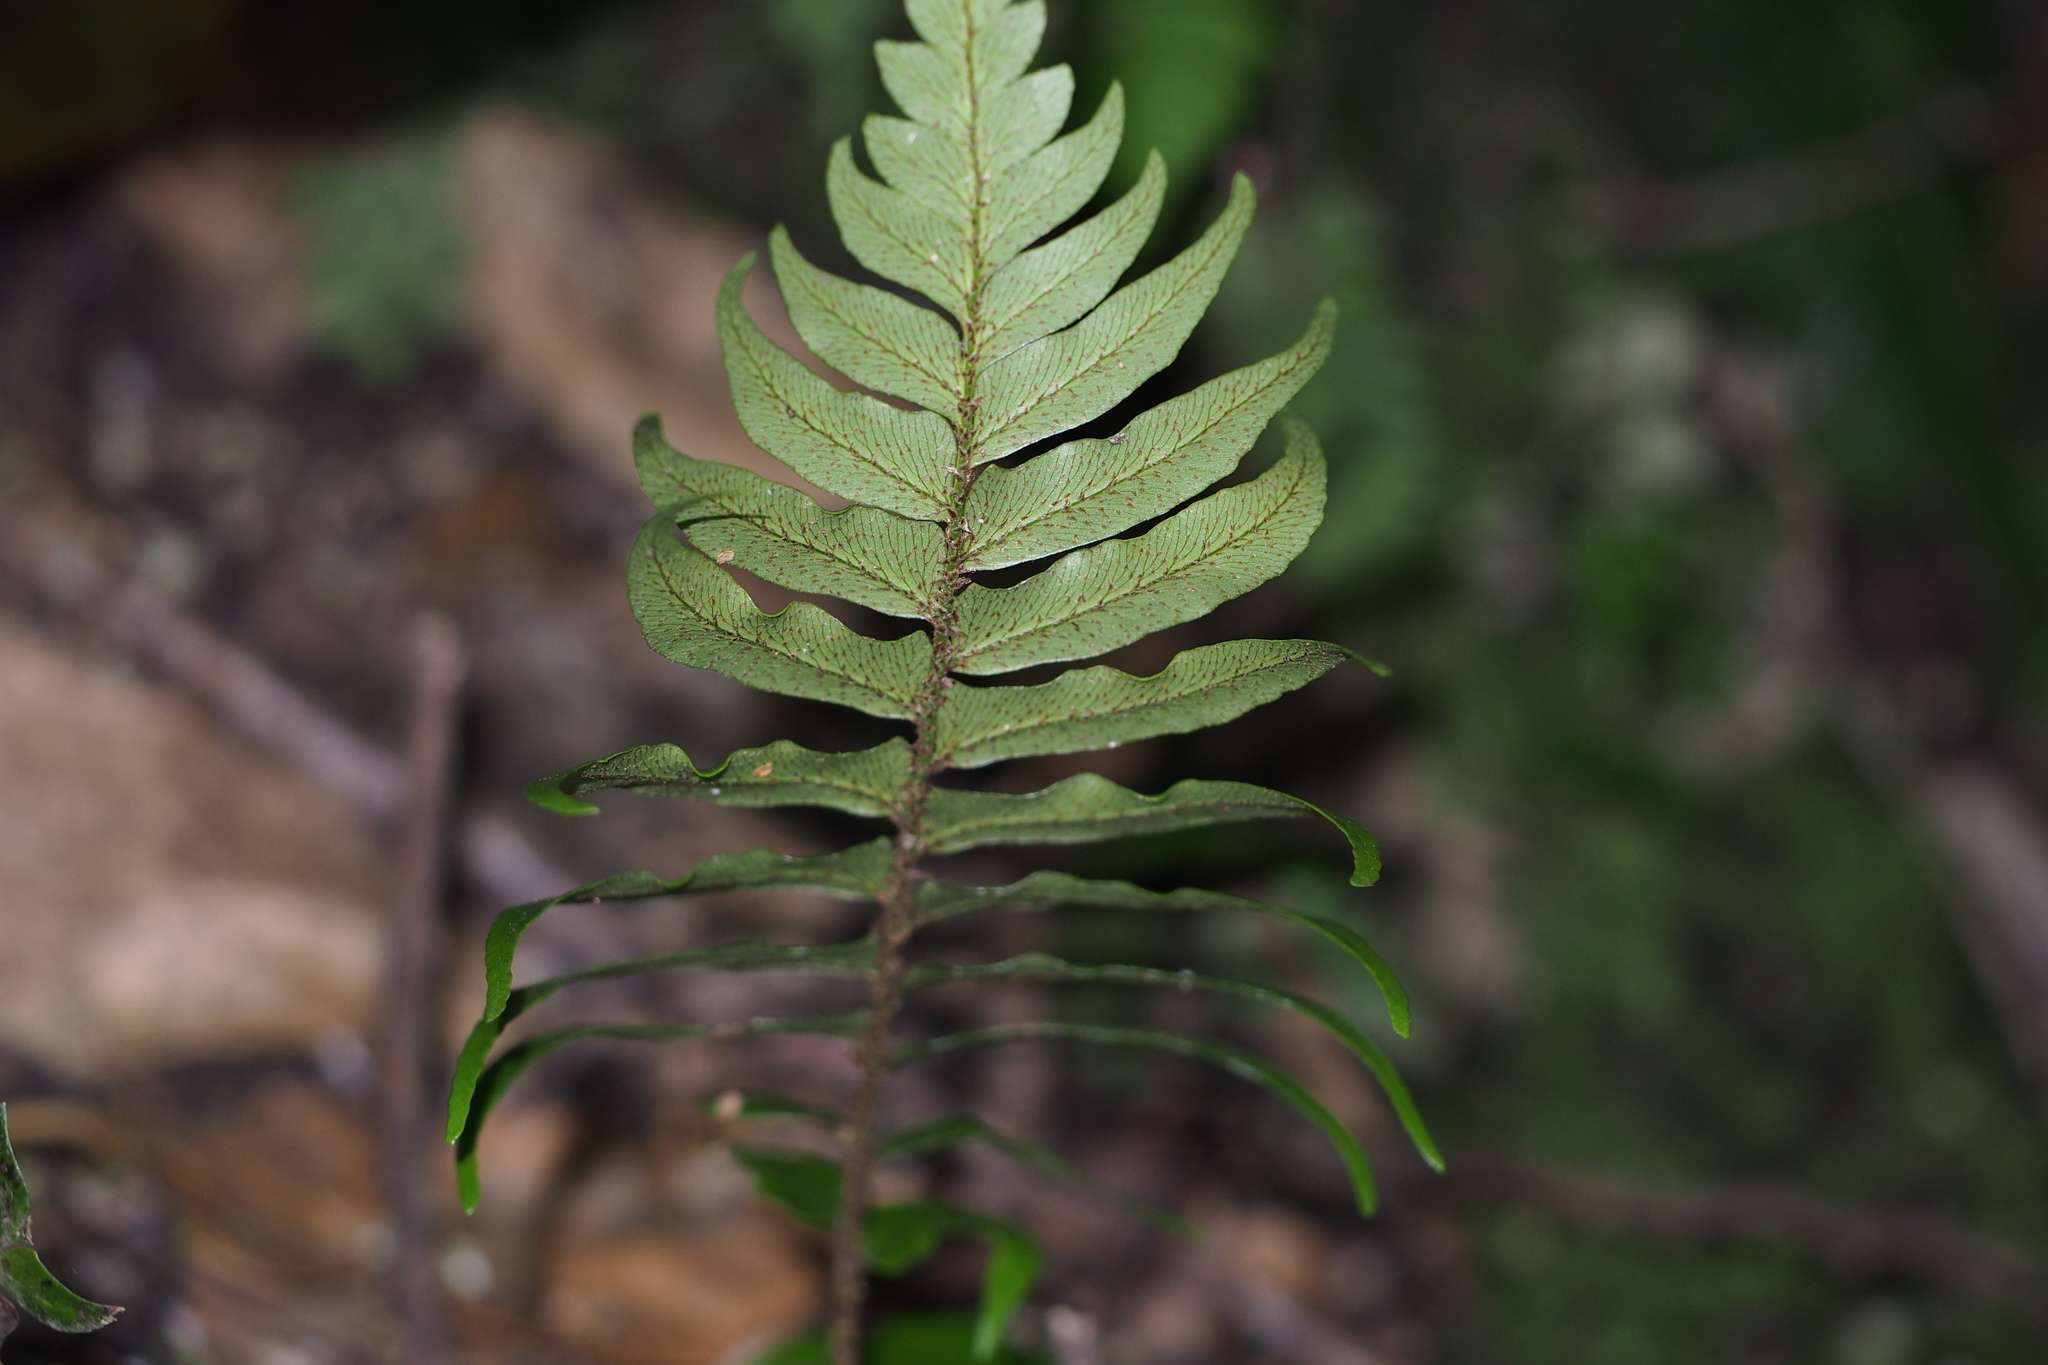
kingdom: Plantae
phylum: Tracheophyta
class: Polypodiopsida
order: Polypodiales
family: Dryopteridaceae
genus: Polystichum
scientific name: Polystichum lepidocaulon
